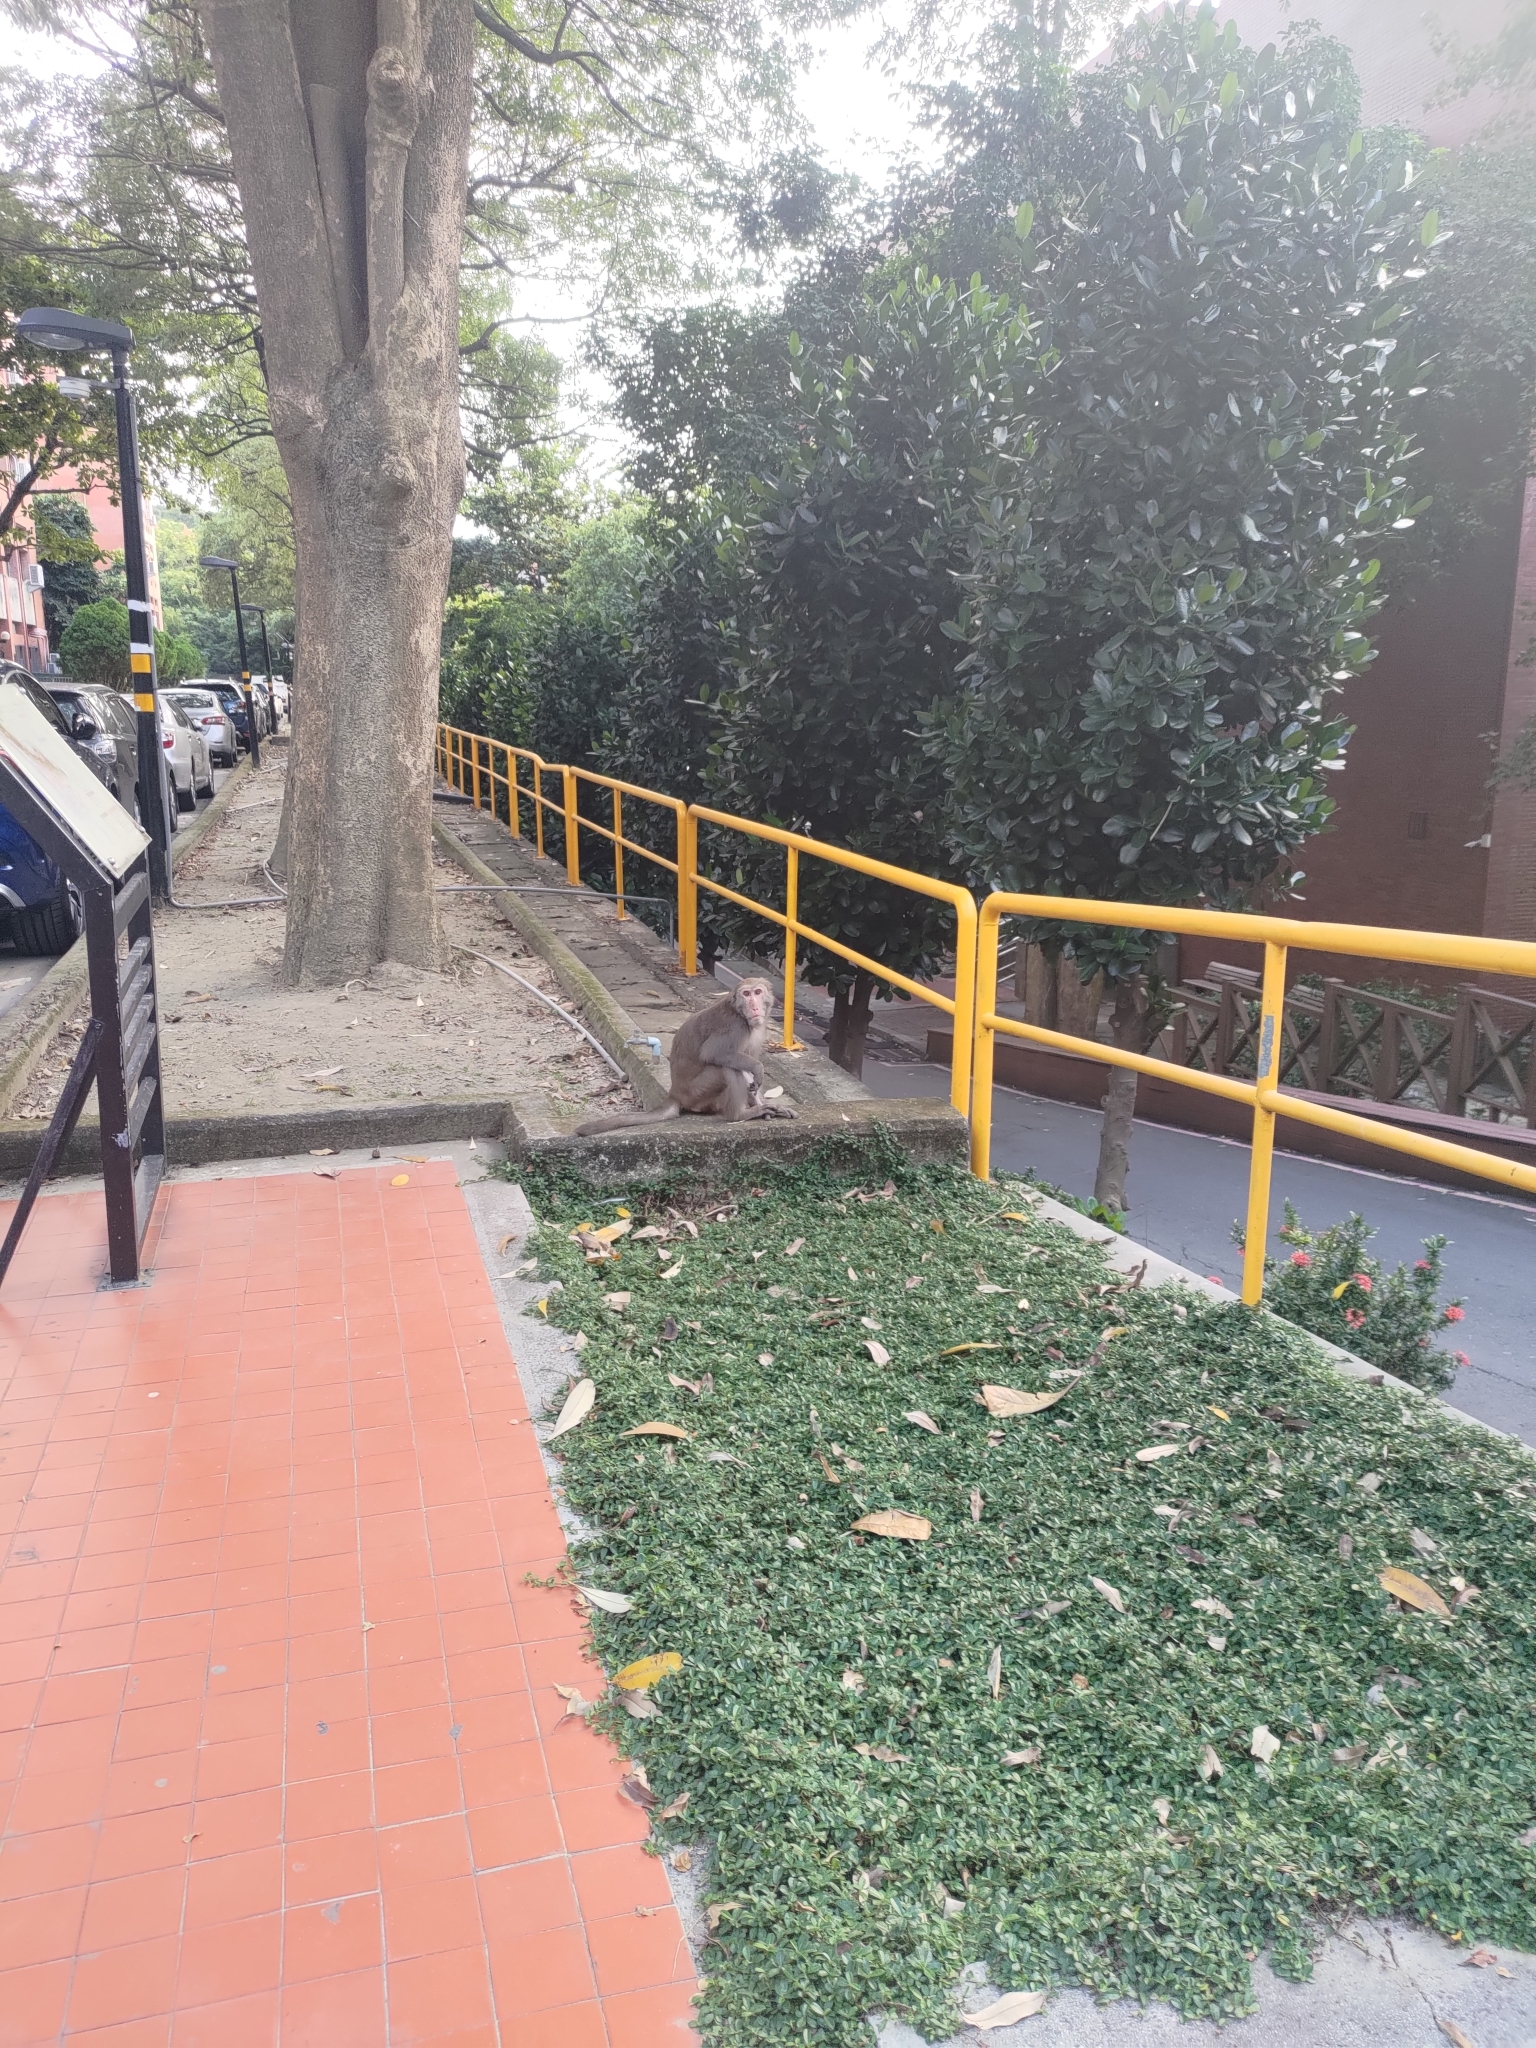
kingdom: Animalia
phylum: Chordata
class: Mammalia
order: Primates
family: Cercopithecidae
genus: Macaca
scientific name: Macaca cyclopis
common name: Formosan rock macaque
